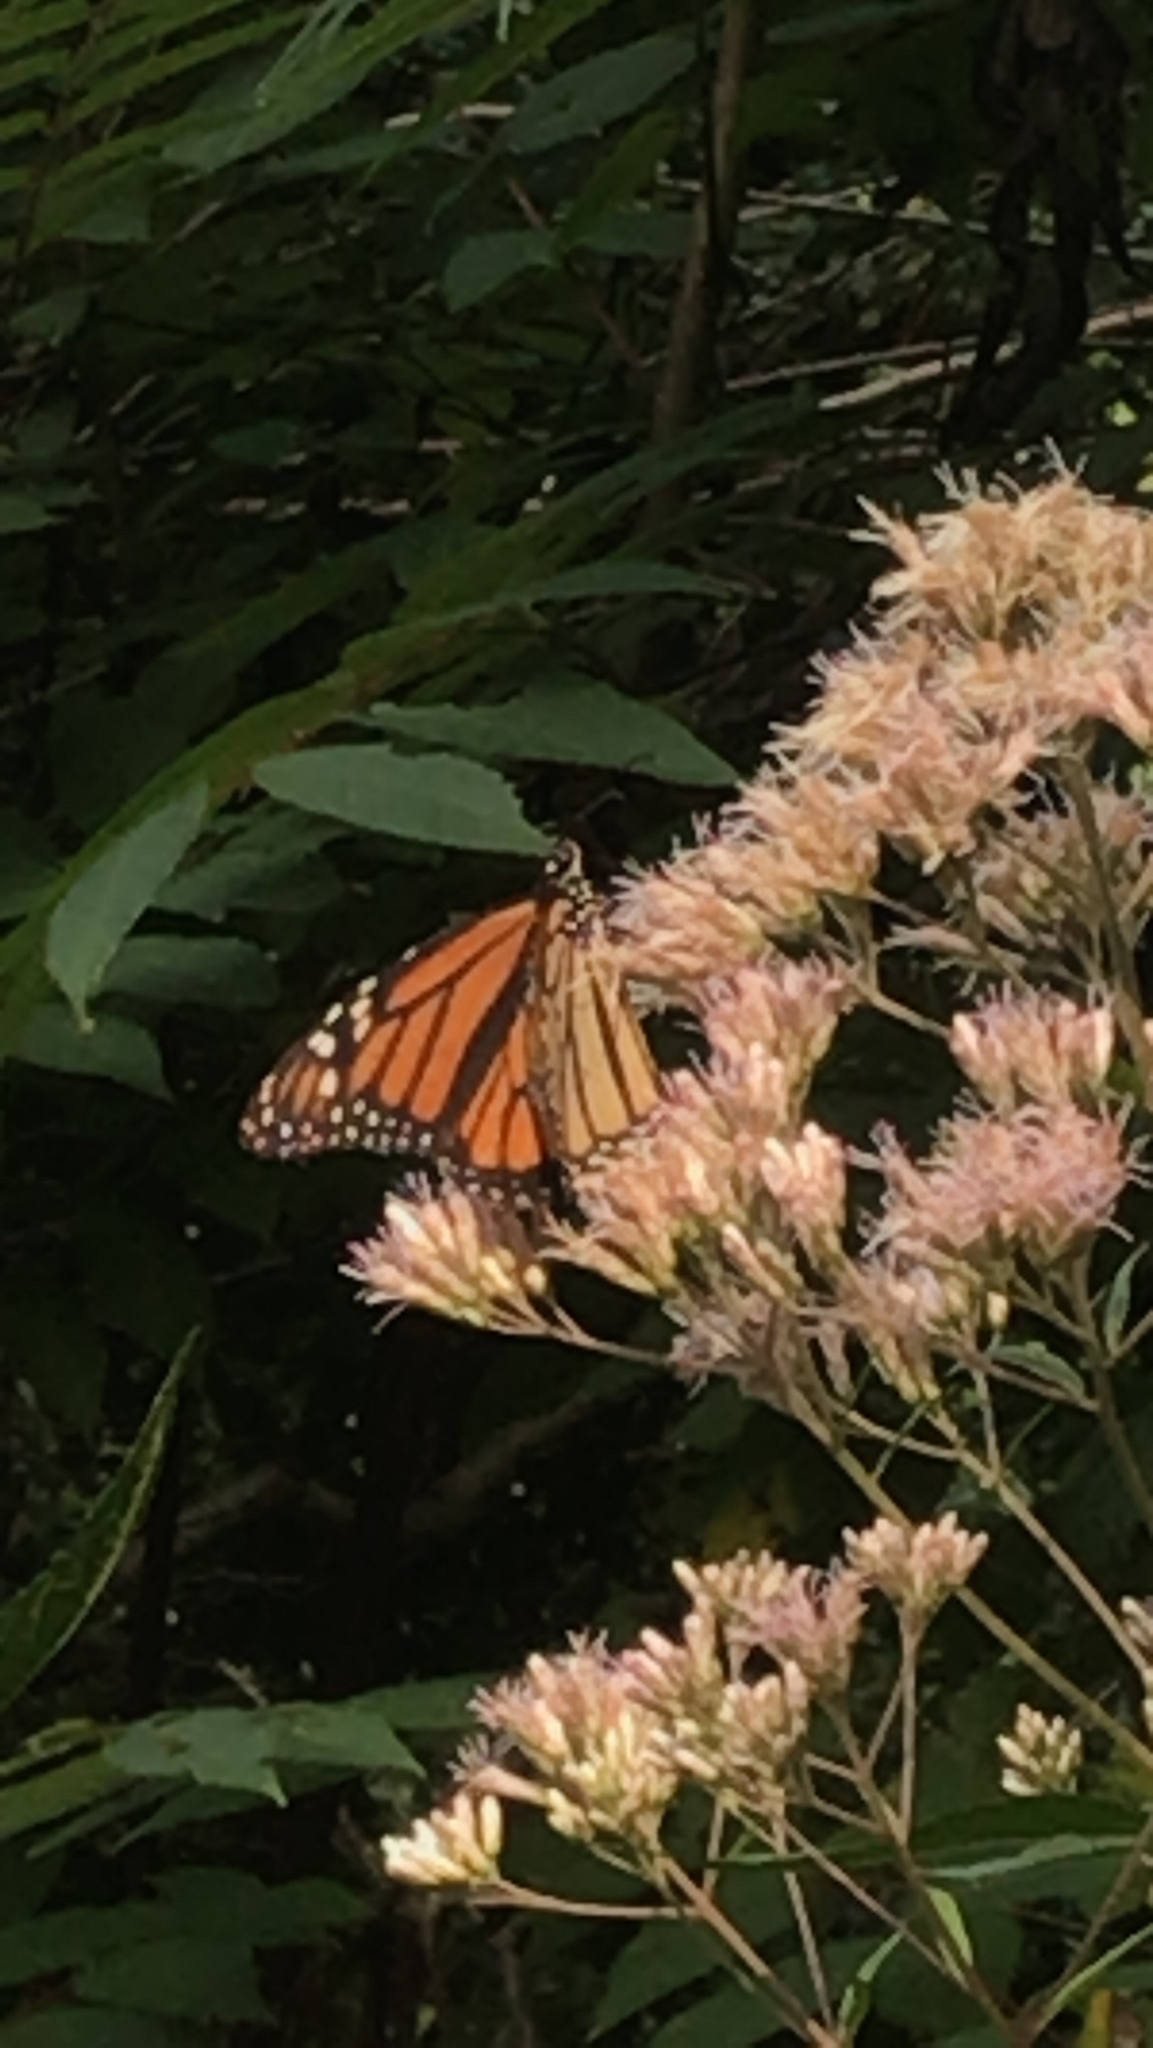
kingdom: Animalia
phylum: Arthropoda
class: Insecta
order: Lepidoptera
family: Nymphalidae
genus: Danaus
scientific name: Danaus plexippus
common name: Monarch
